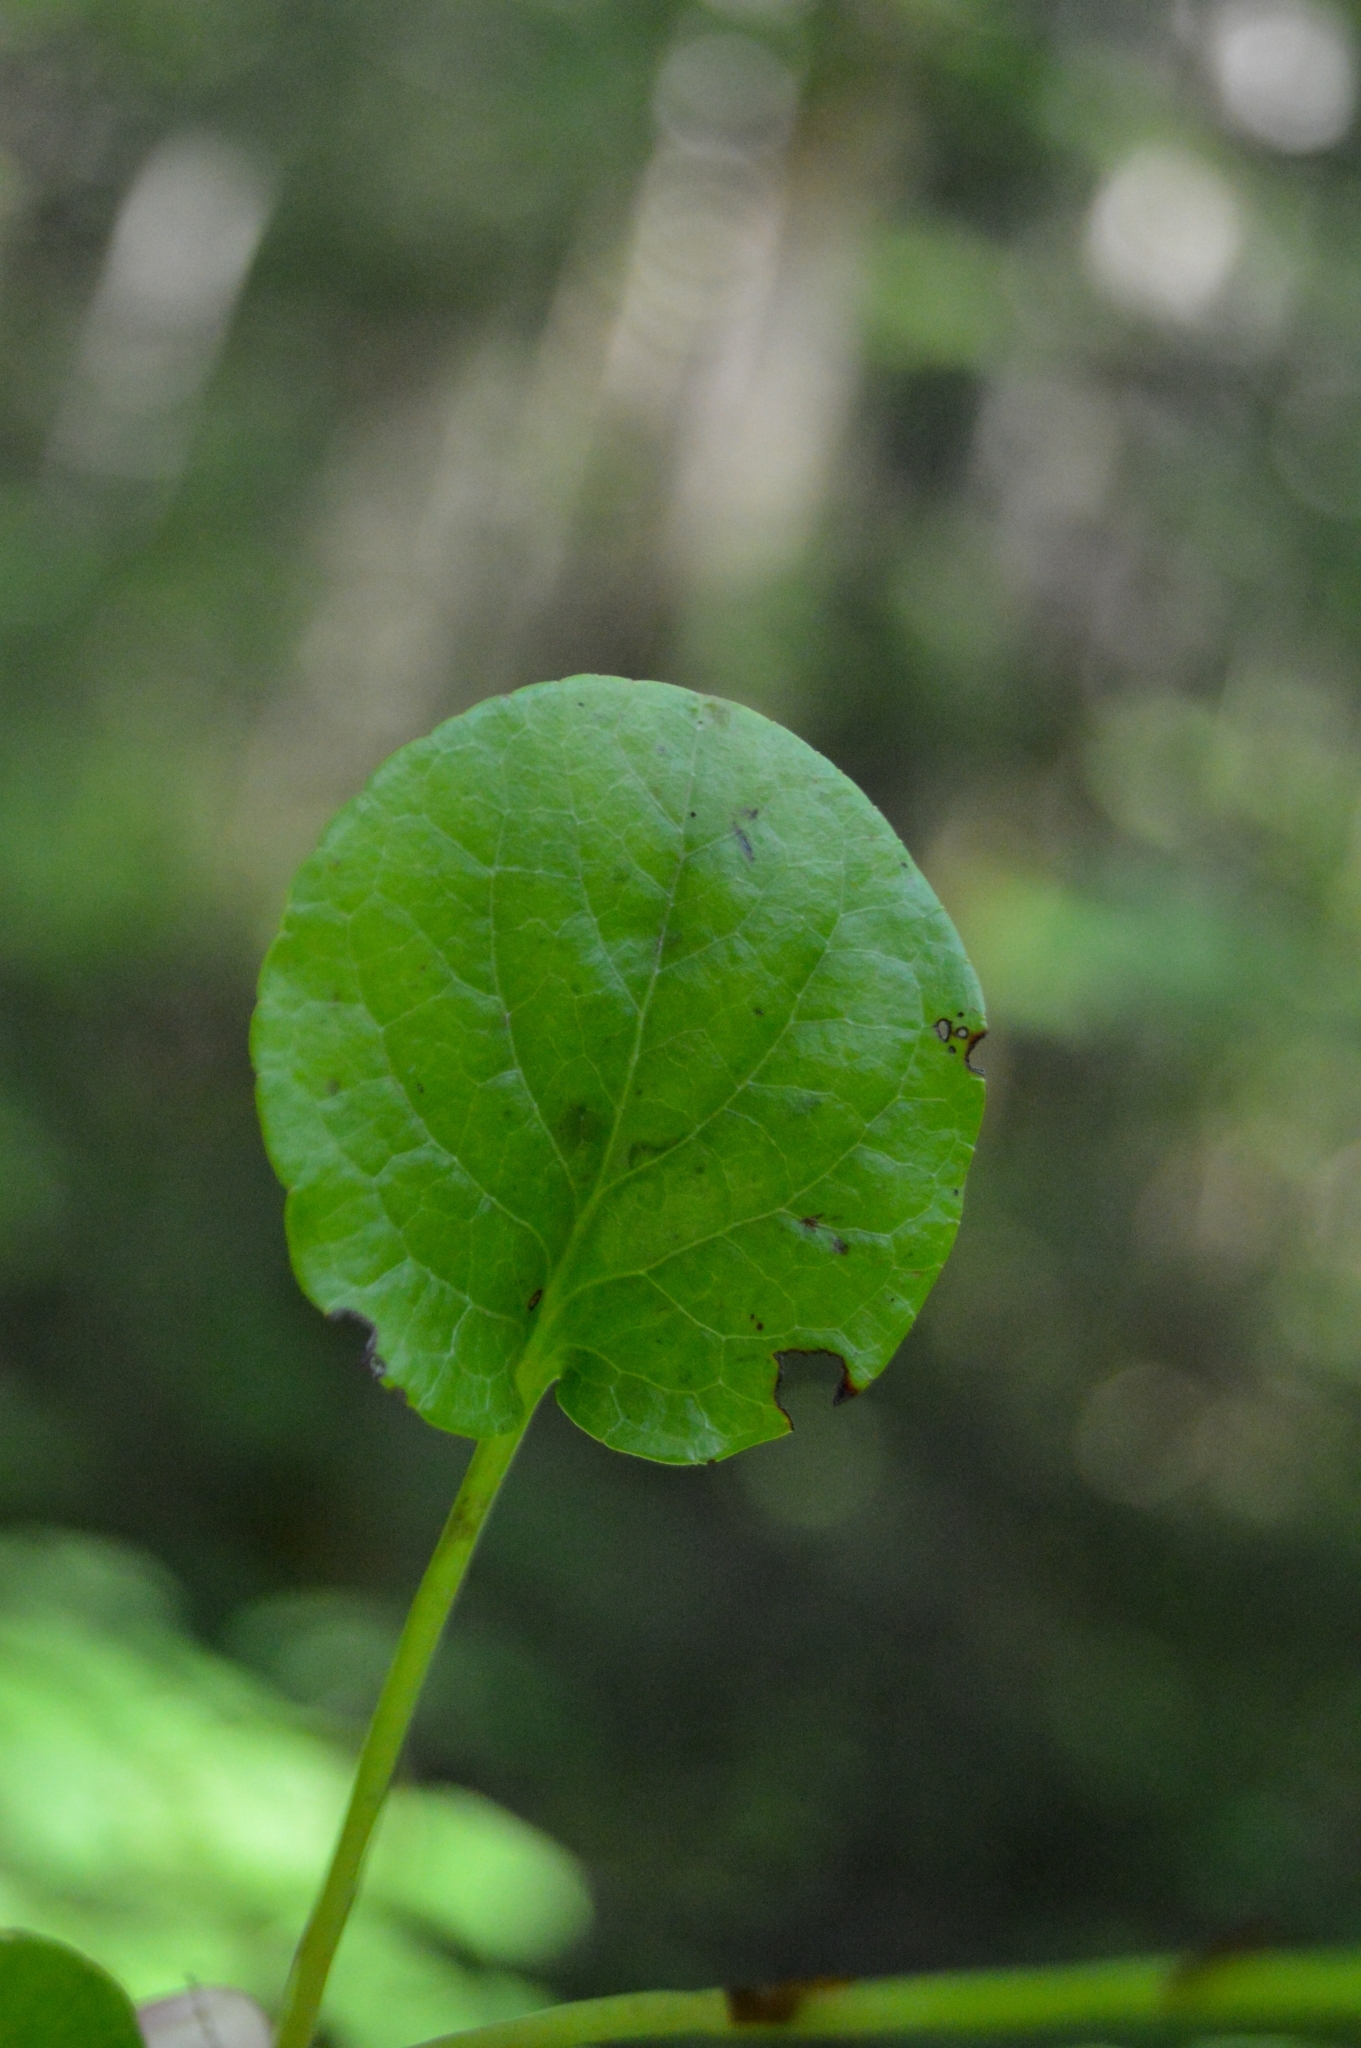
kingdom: Plantae
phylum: Tracheophyta
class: Magnoliopsida
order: Ericales
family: Ericaceae
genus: Pyrola
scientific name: Pyrola rotundifolia
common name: Round-leaved wintergreen
